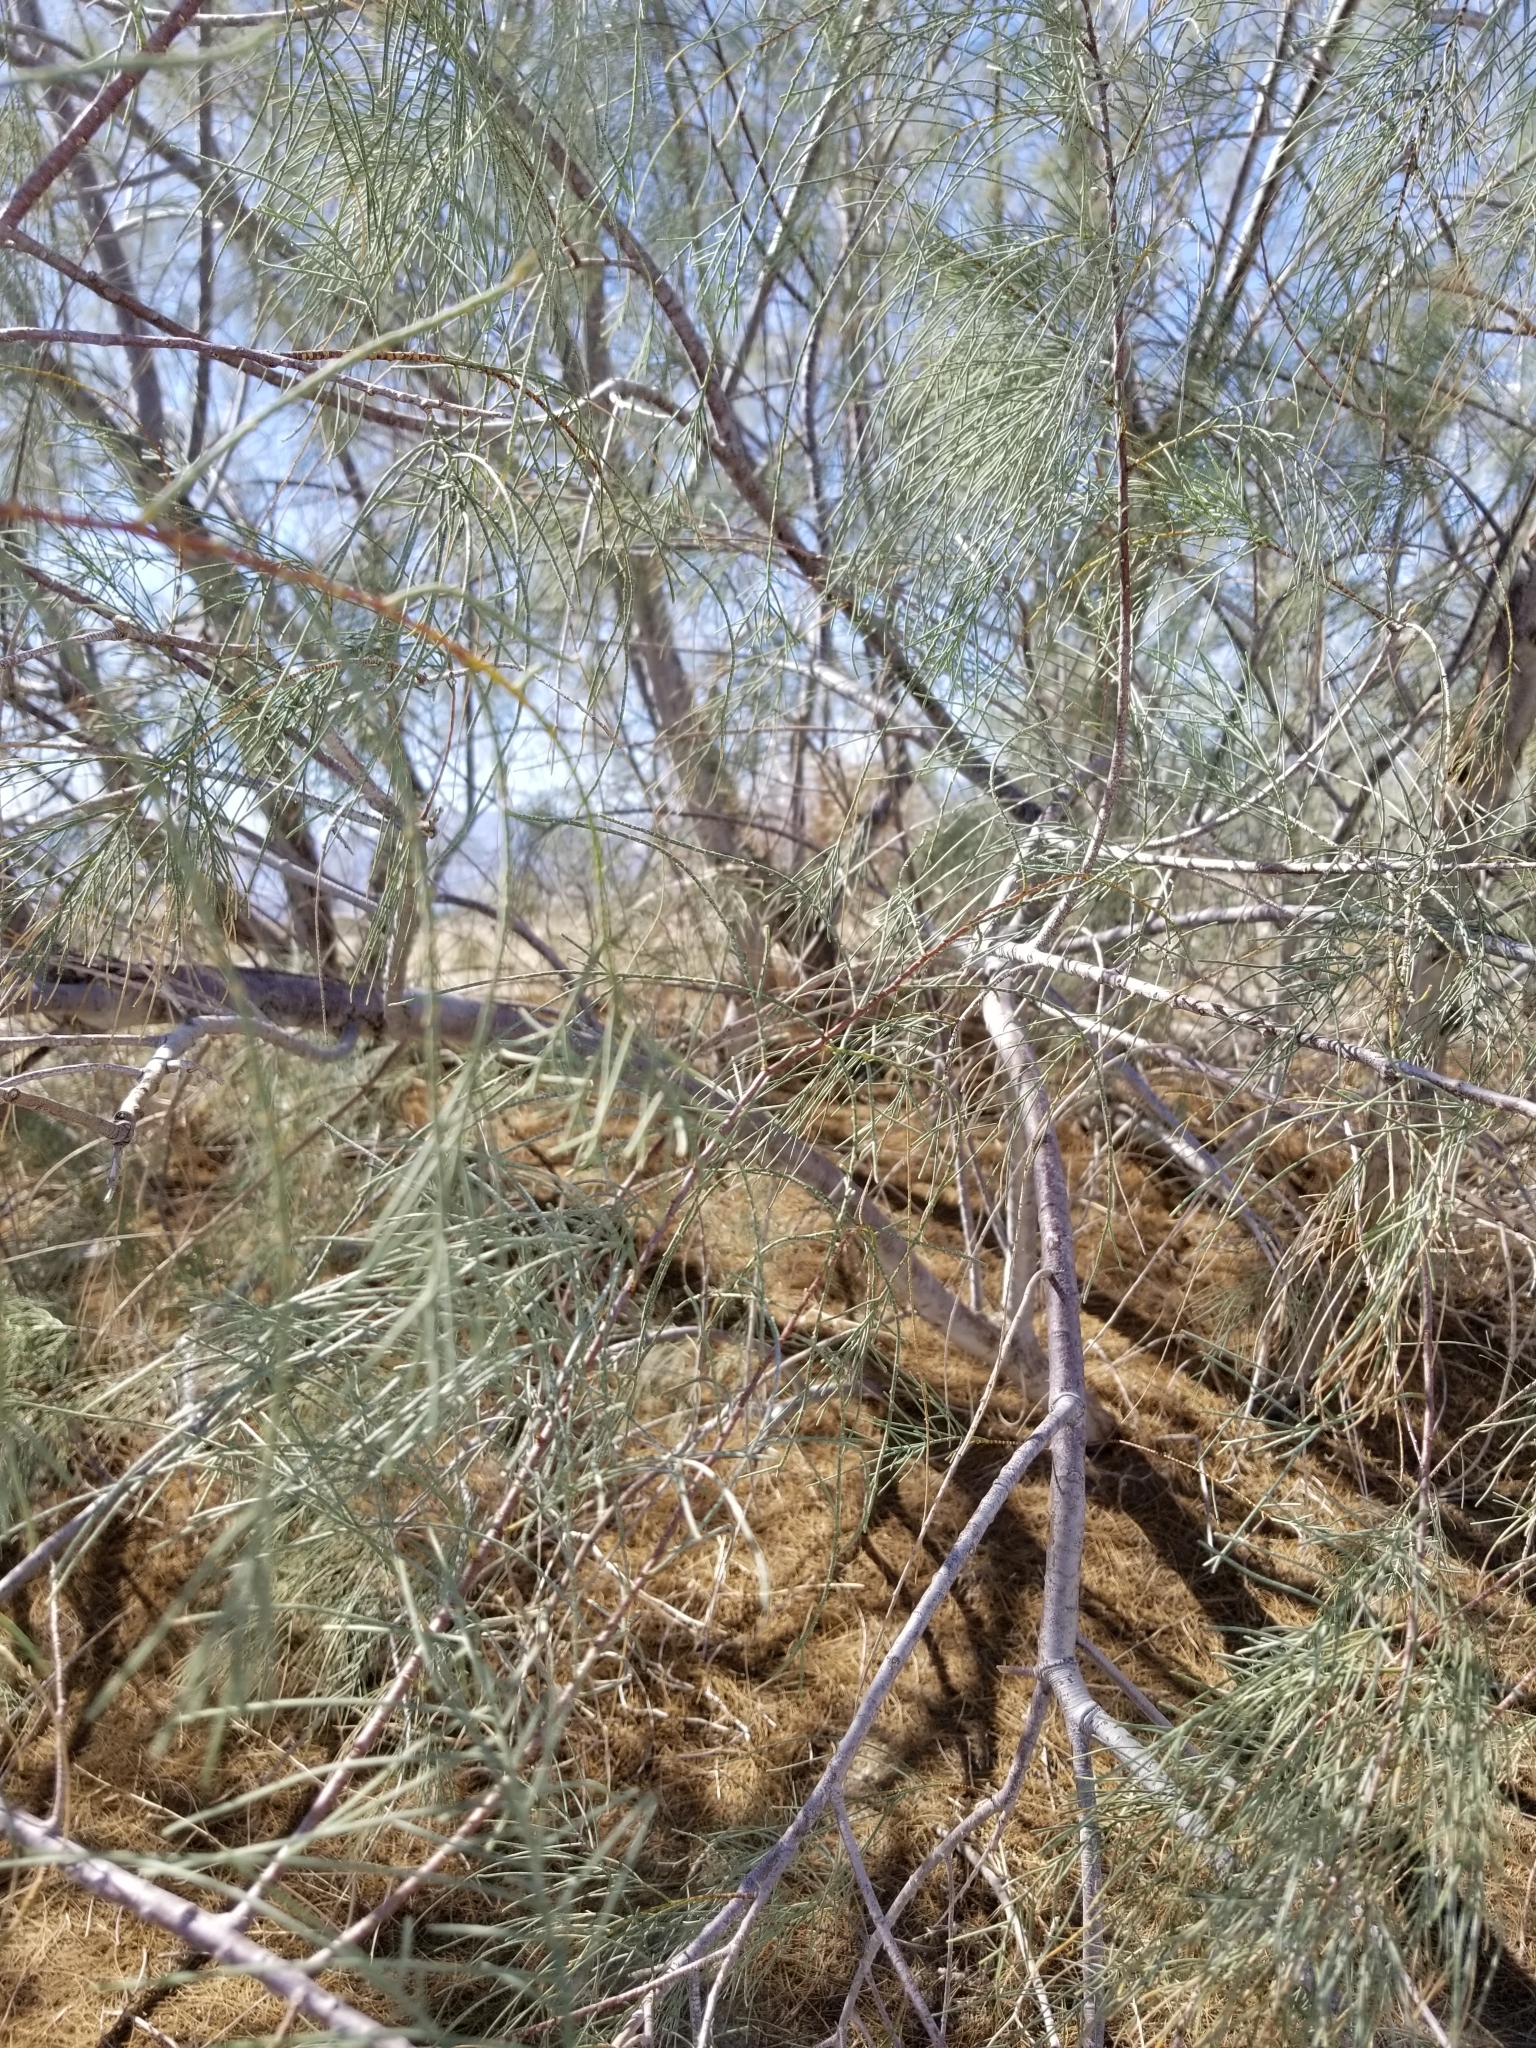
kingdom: Plantae
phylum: Tracheophyta
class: Magnoliopsida
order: Caryophyllales
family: Tamaricaceae
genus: Tamarix
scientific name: Tamarix aphylla
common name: Athel tamarisk
